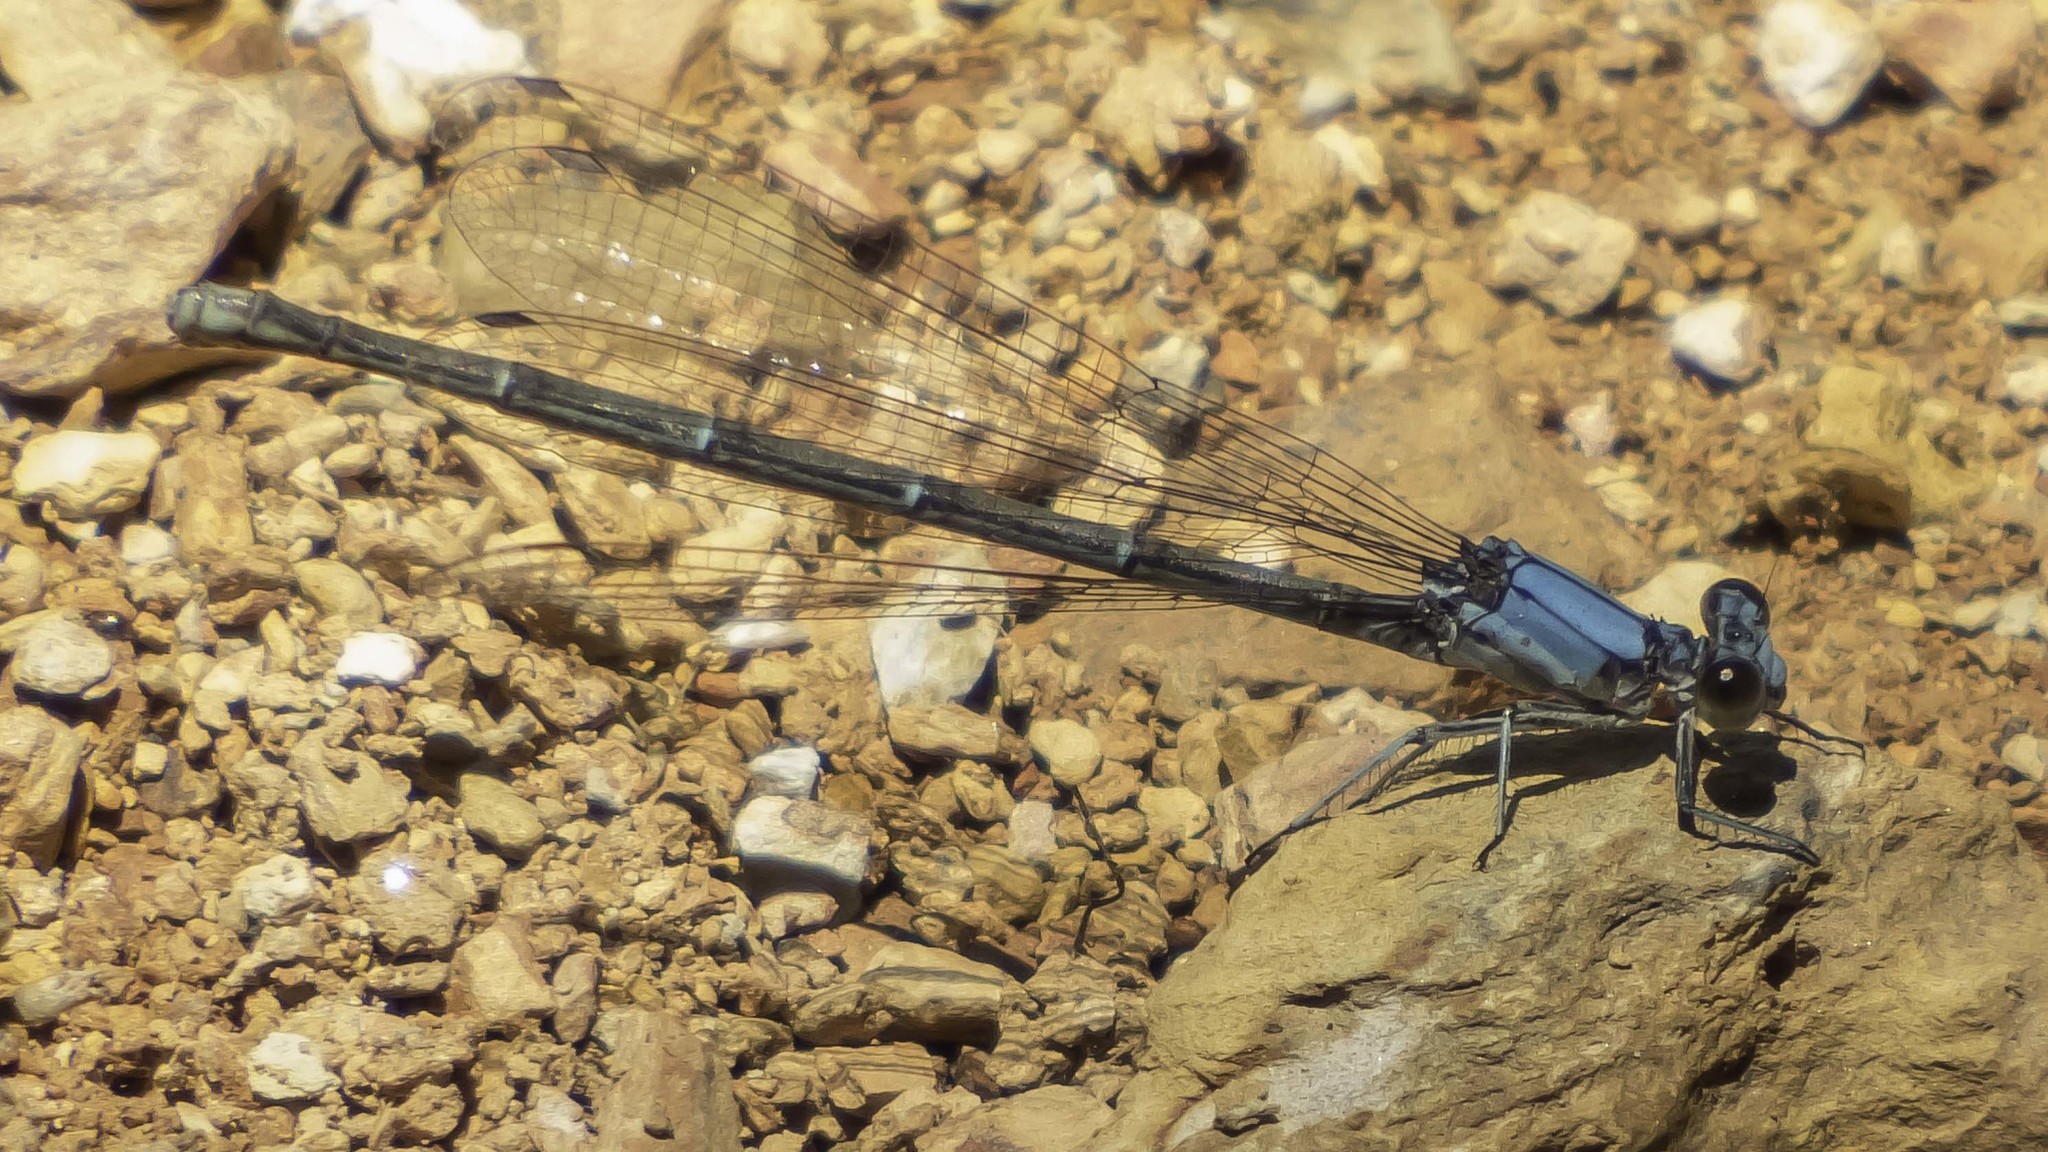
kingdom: Animalia
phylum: Arthropoda
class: Insecta
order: Odonata
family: Coenagrionidae
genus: Argia
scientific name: Argia moesta
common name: Powdered dancer
